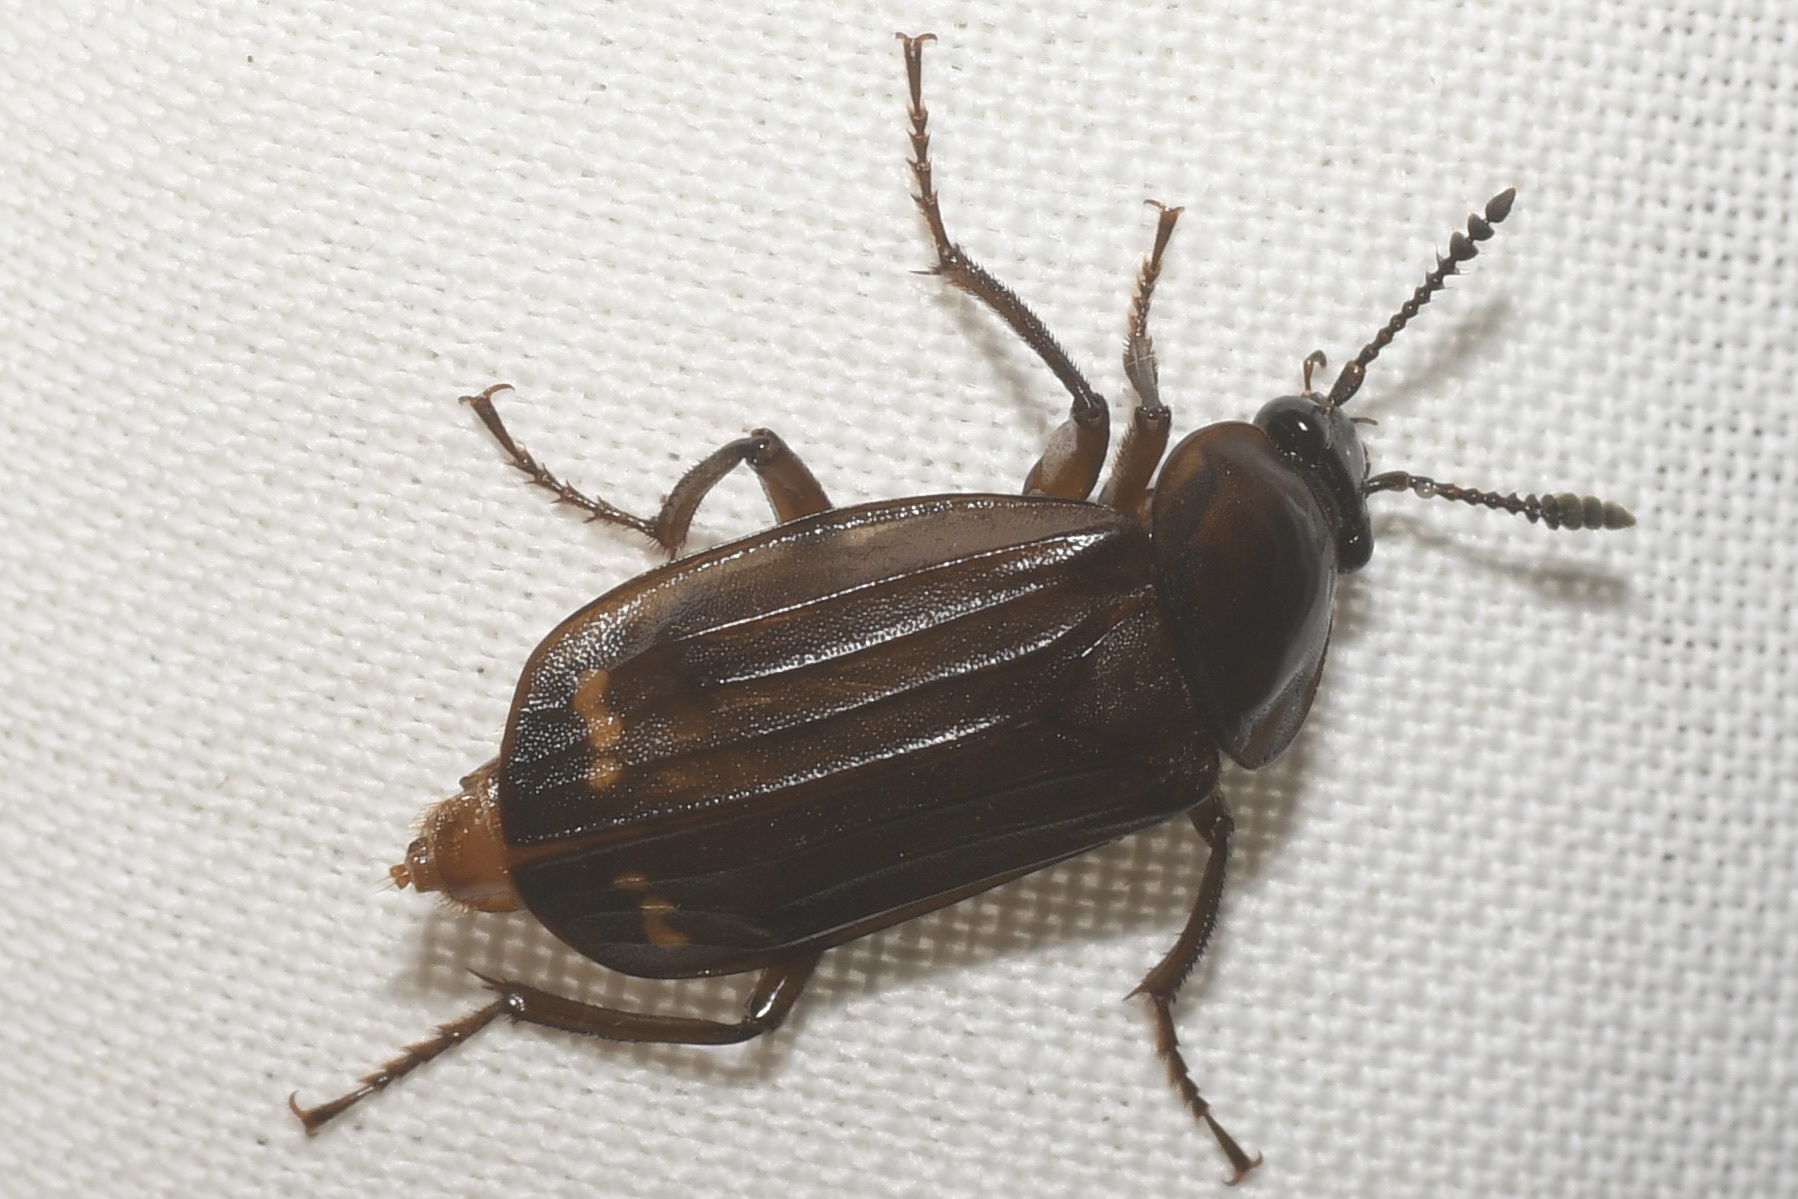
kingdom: Animalia
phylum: Arthropoda
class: Insecta
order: Coleoptera
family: Staphylinidae
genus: Necrodes
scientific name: Necrodes surinamensis
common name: Red-lined carrion beetle
